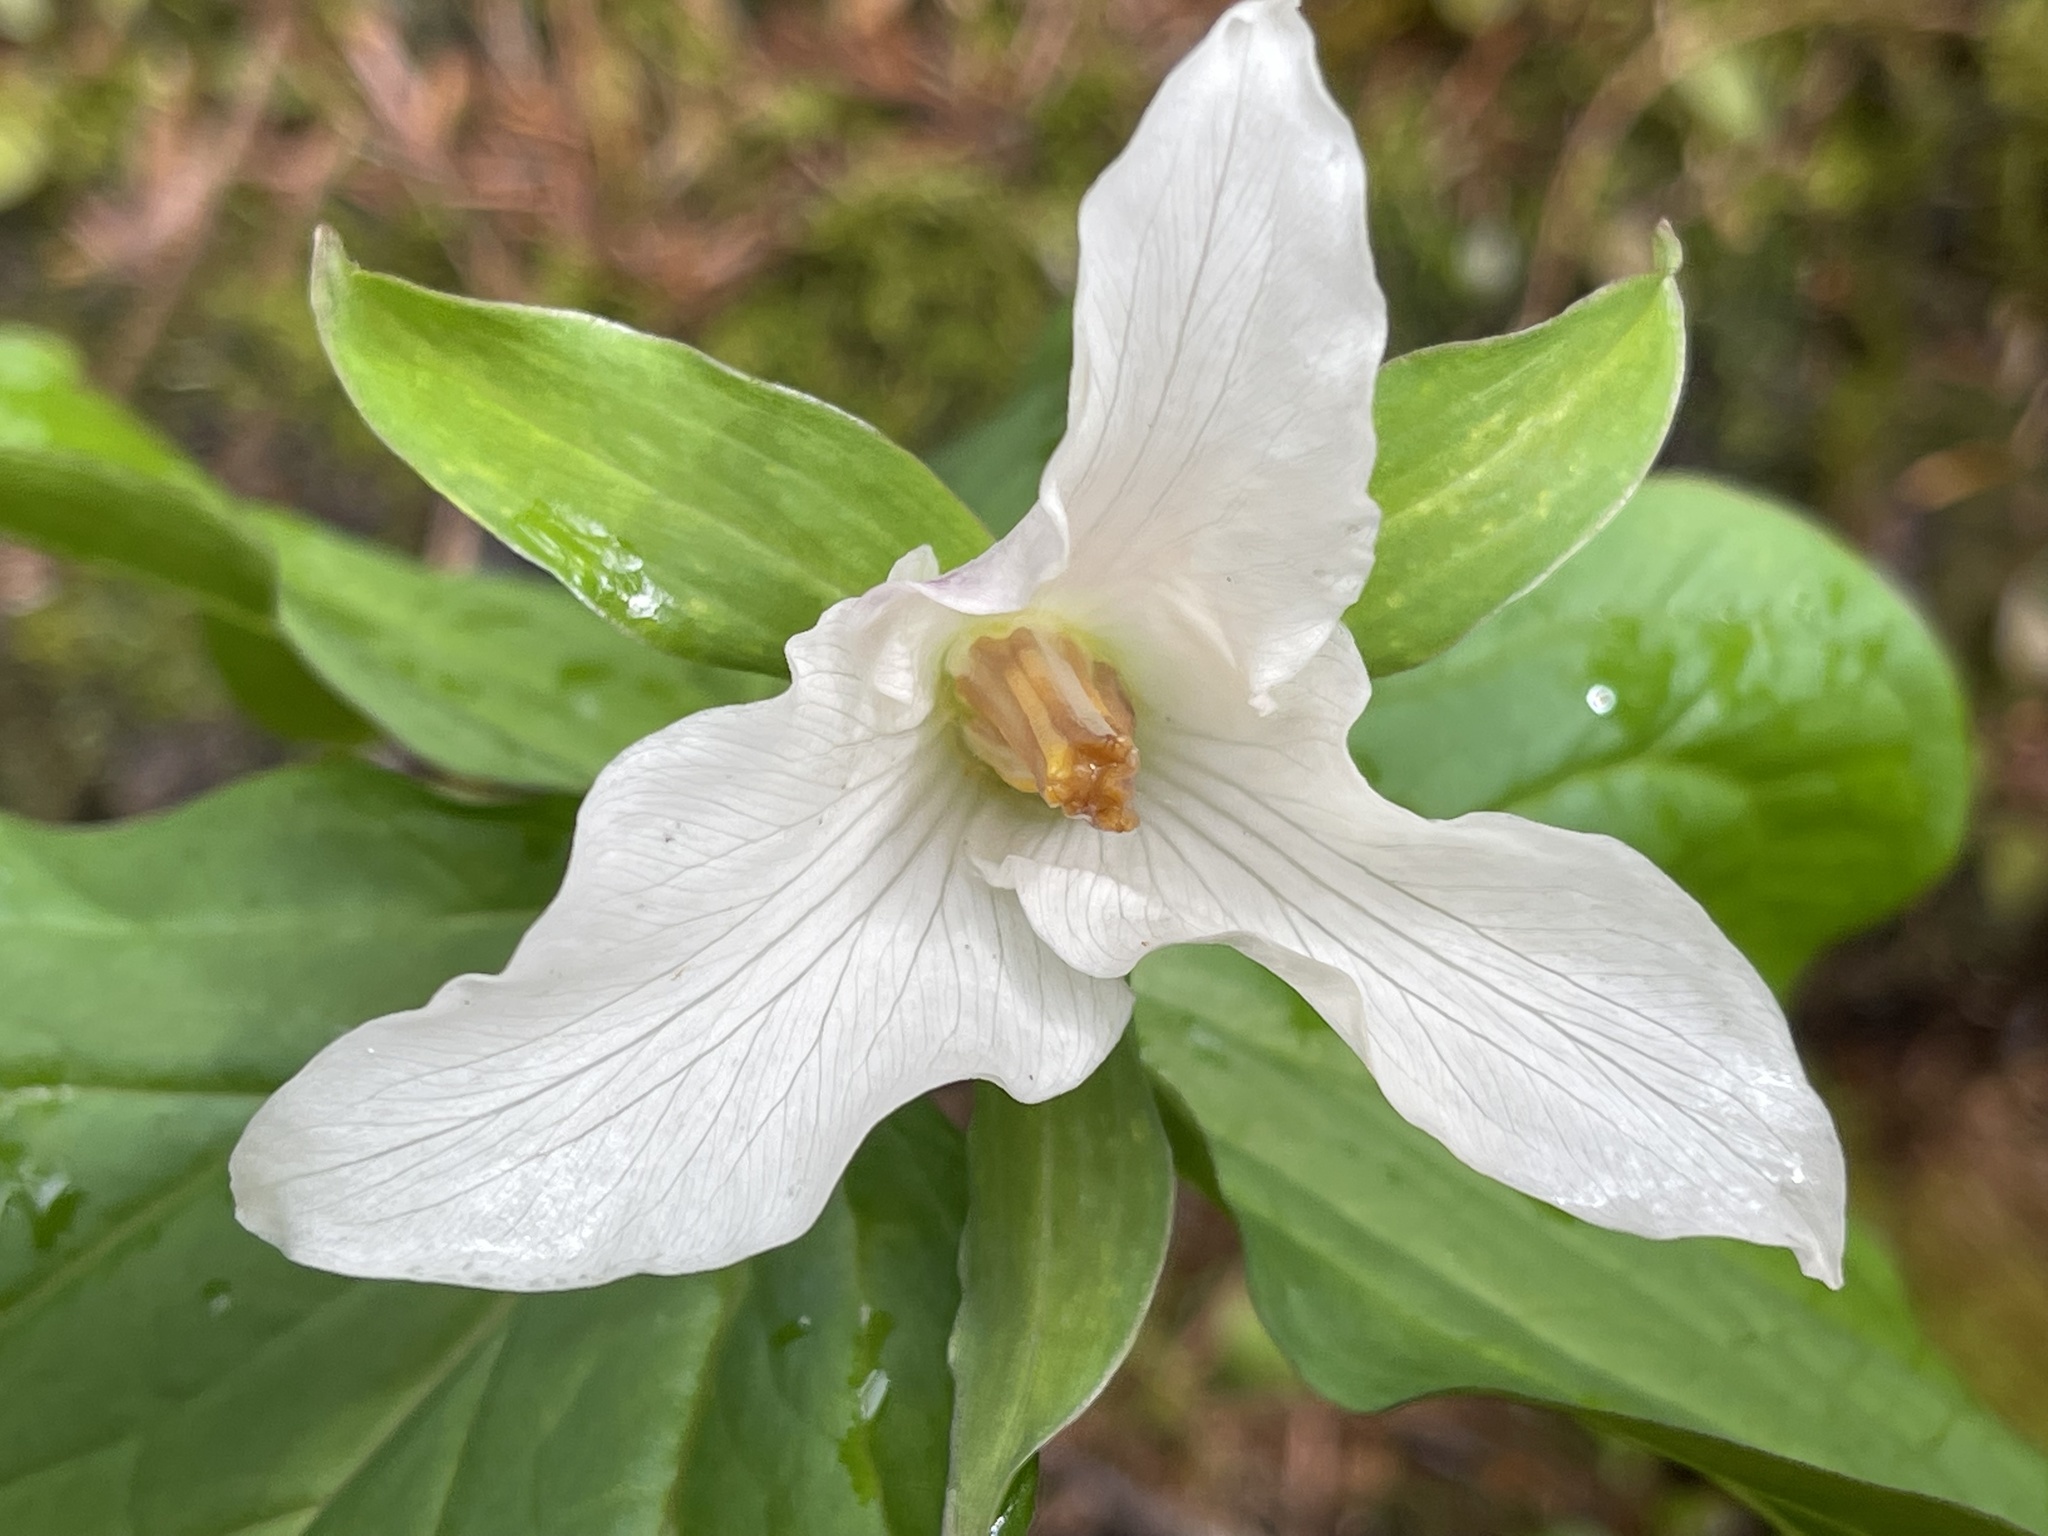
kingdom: Plantae
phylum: Tracheophyta
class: Liliopsida
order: Liliales
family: Melanthiaceae
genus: Trillium
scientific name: Trillium ovatum
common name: Pacific trillium
